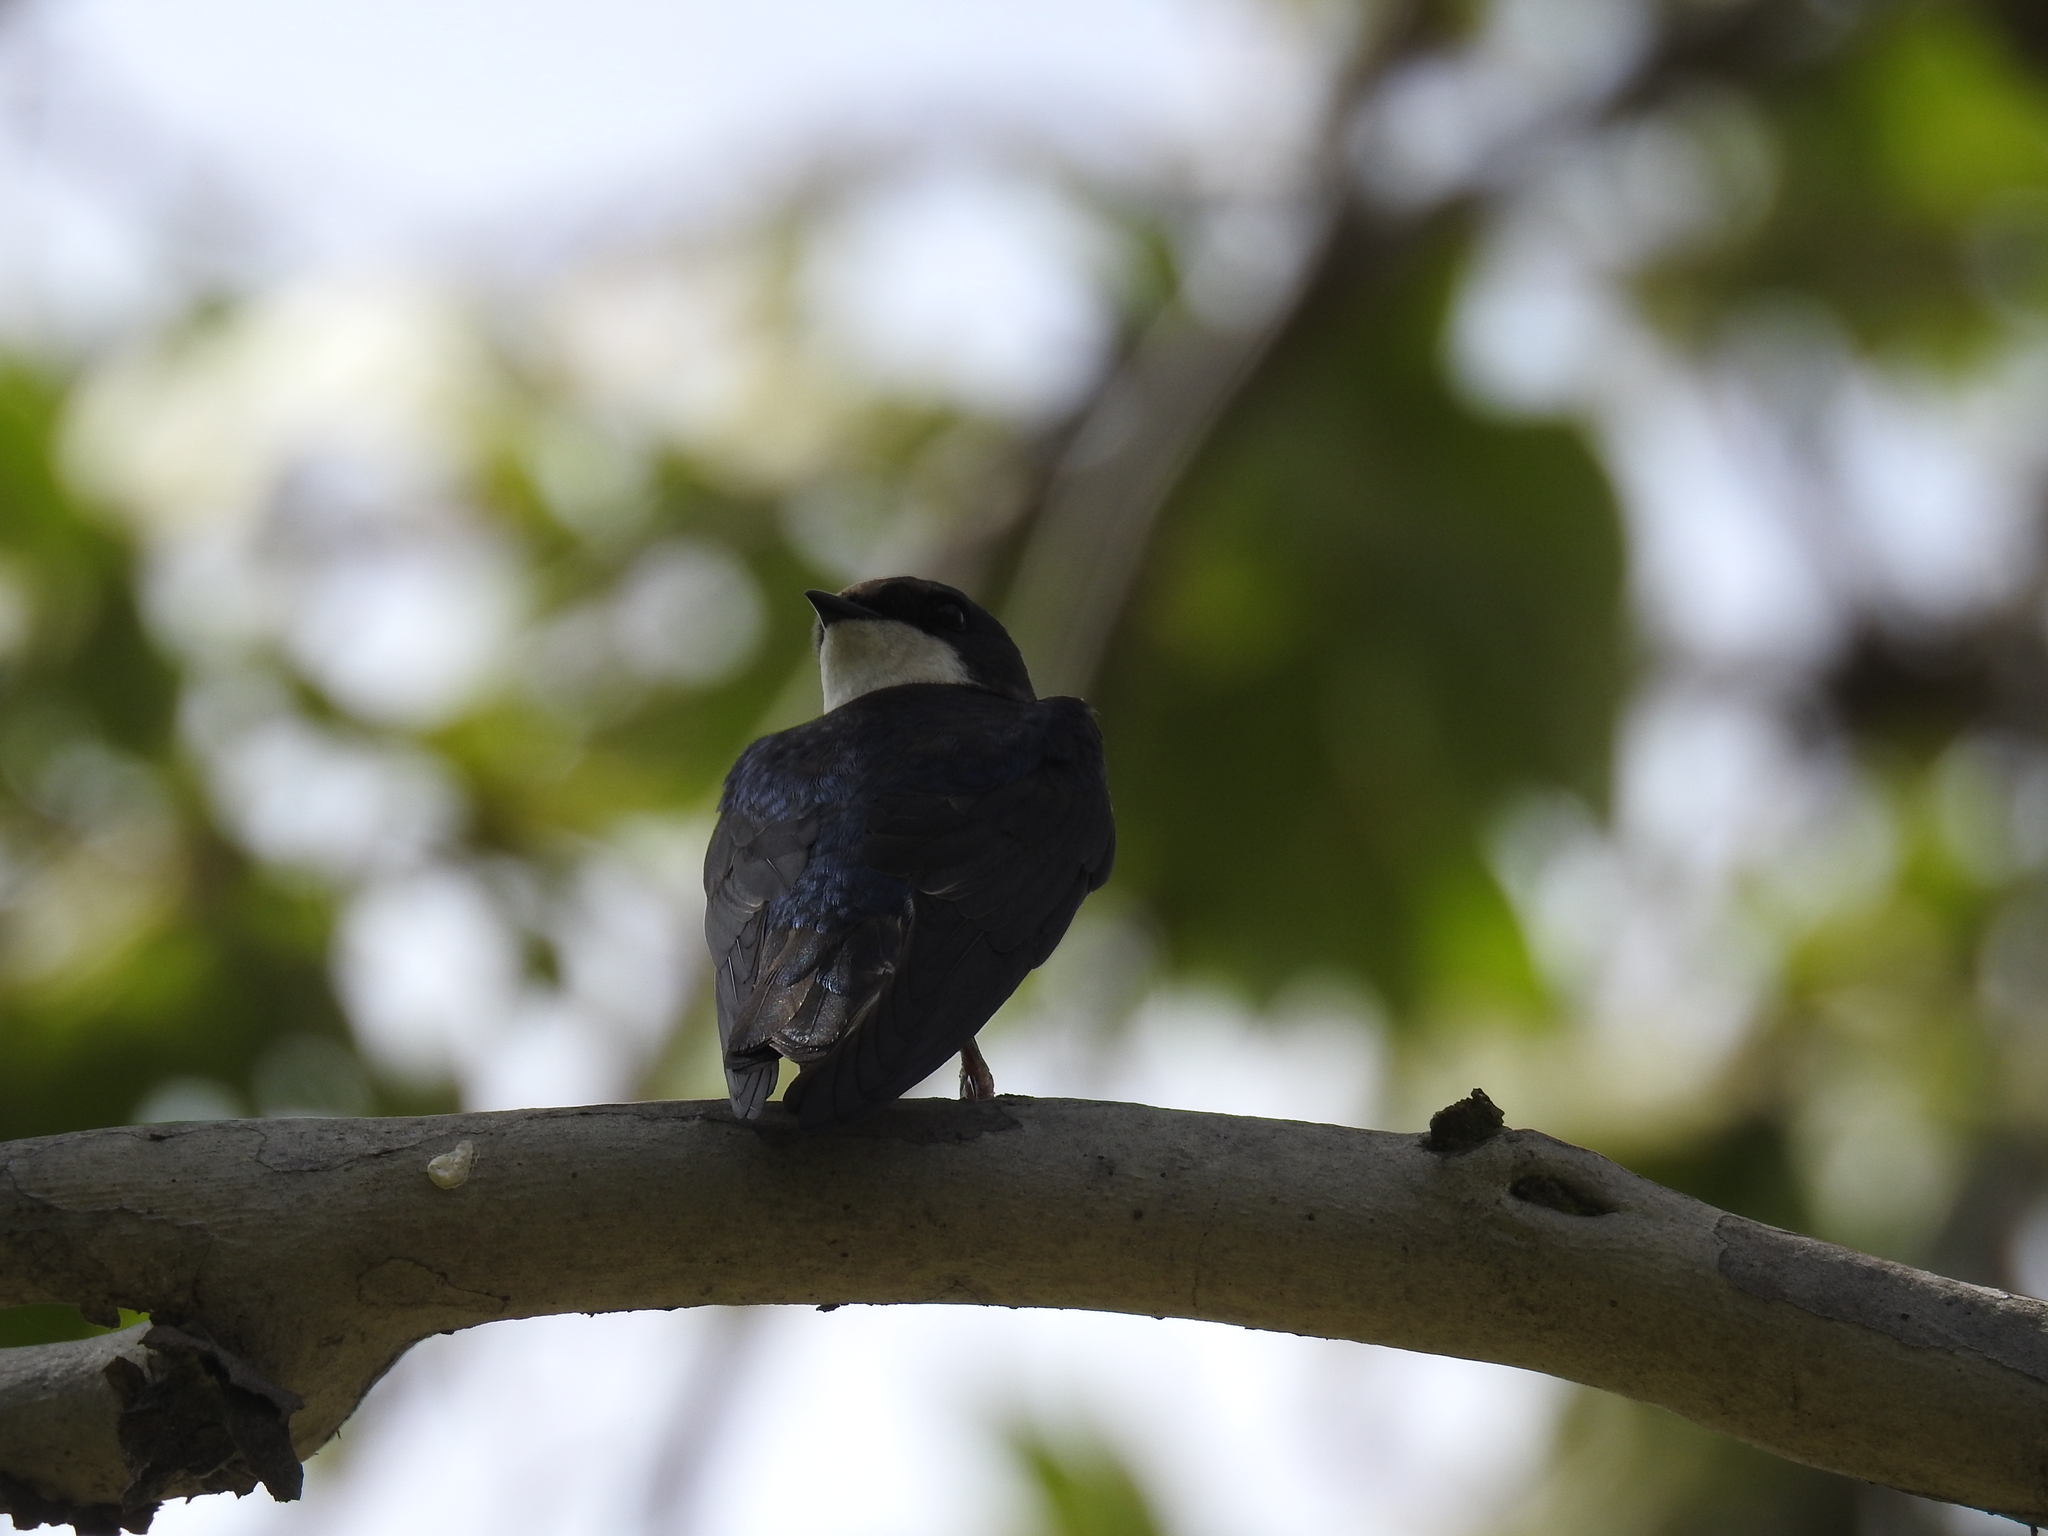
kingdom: Animalia
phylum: Chordata
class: Aves
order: Passeriformes
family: Hirundinidae
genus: Tachycineta
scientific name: Tachycineta bicolor
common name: Tree swallow
